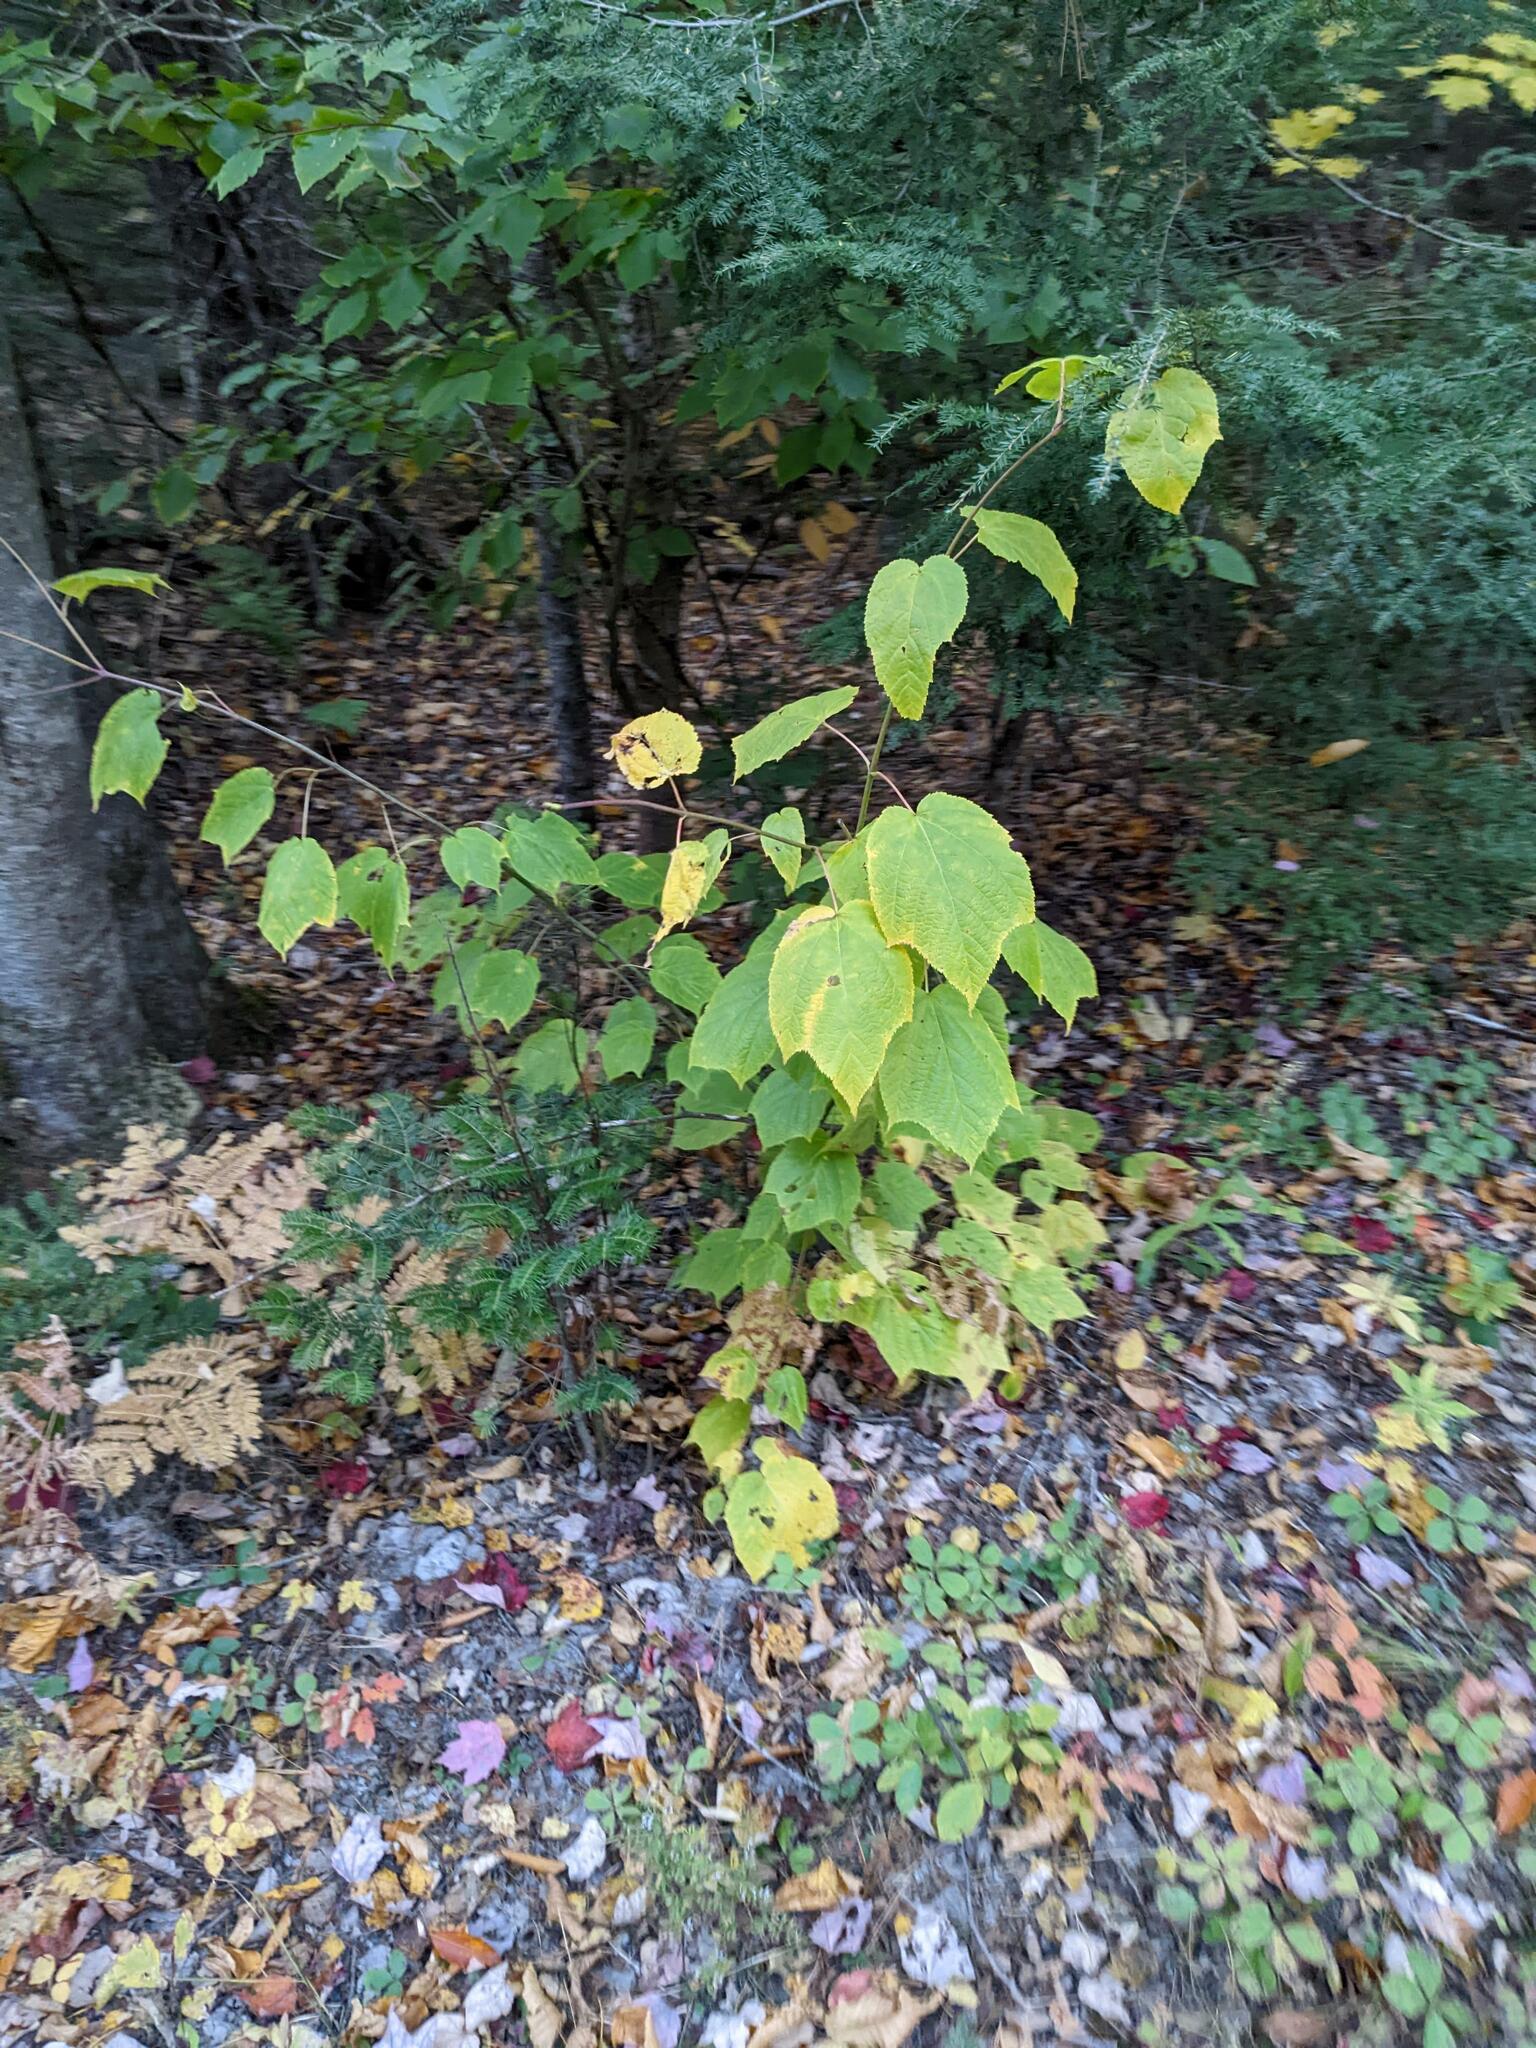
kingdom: Plantae
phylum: Tracheophyta
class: Magnoliopsida
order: Sapindales
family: Sapindaceae
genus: Acer
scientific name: Acer pensylvanicum
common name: Moosewood
